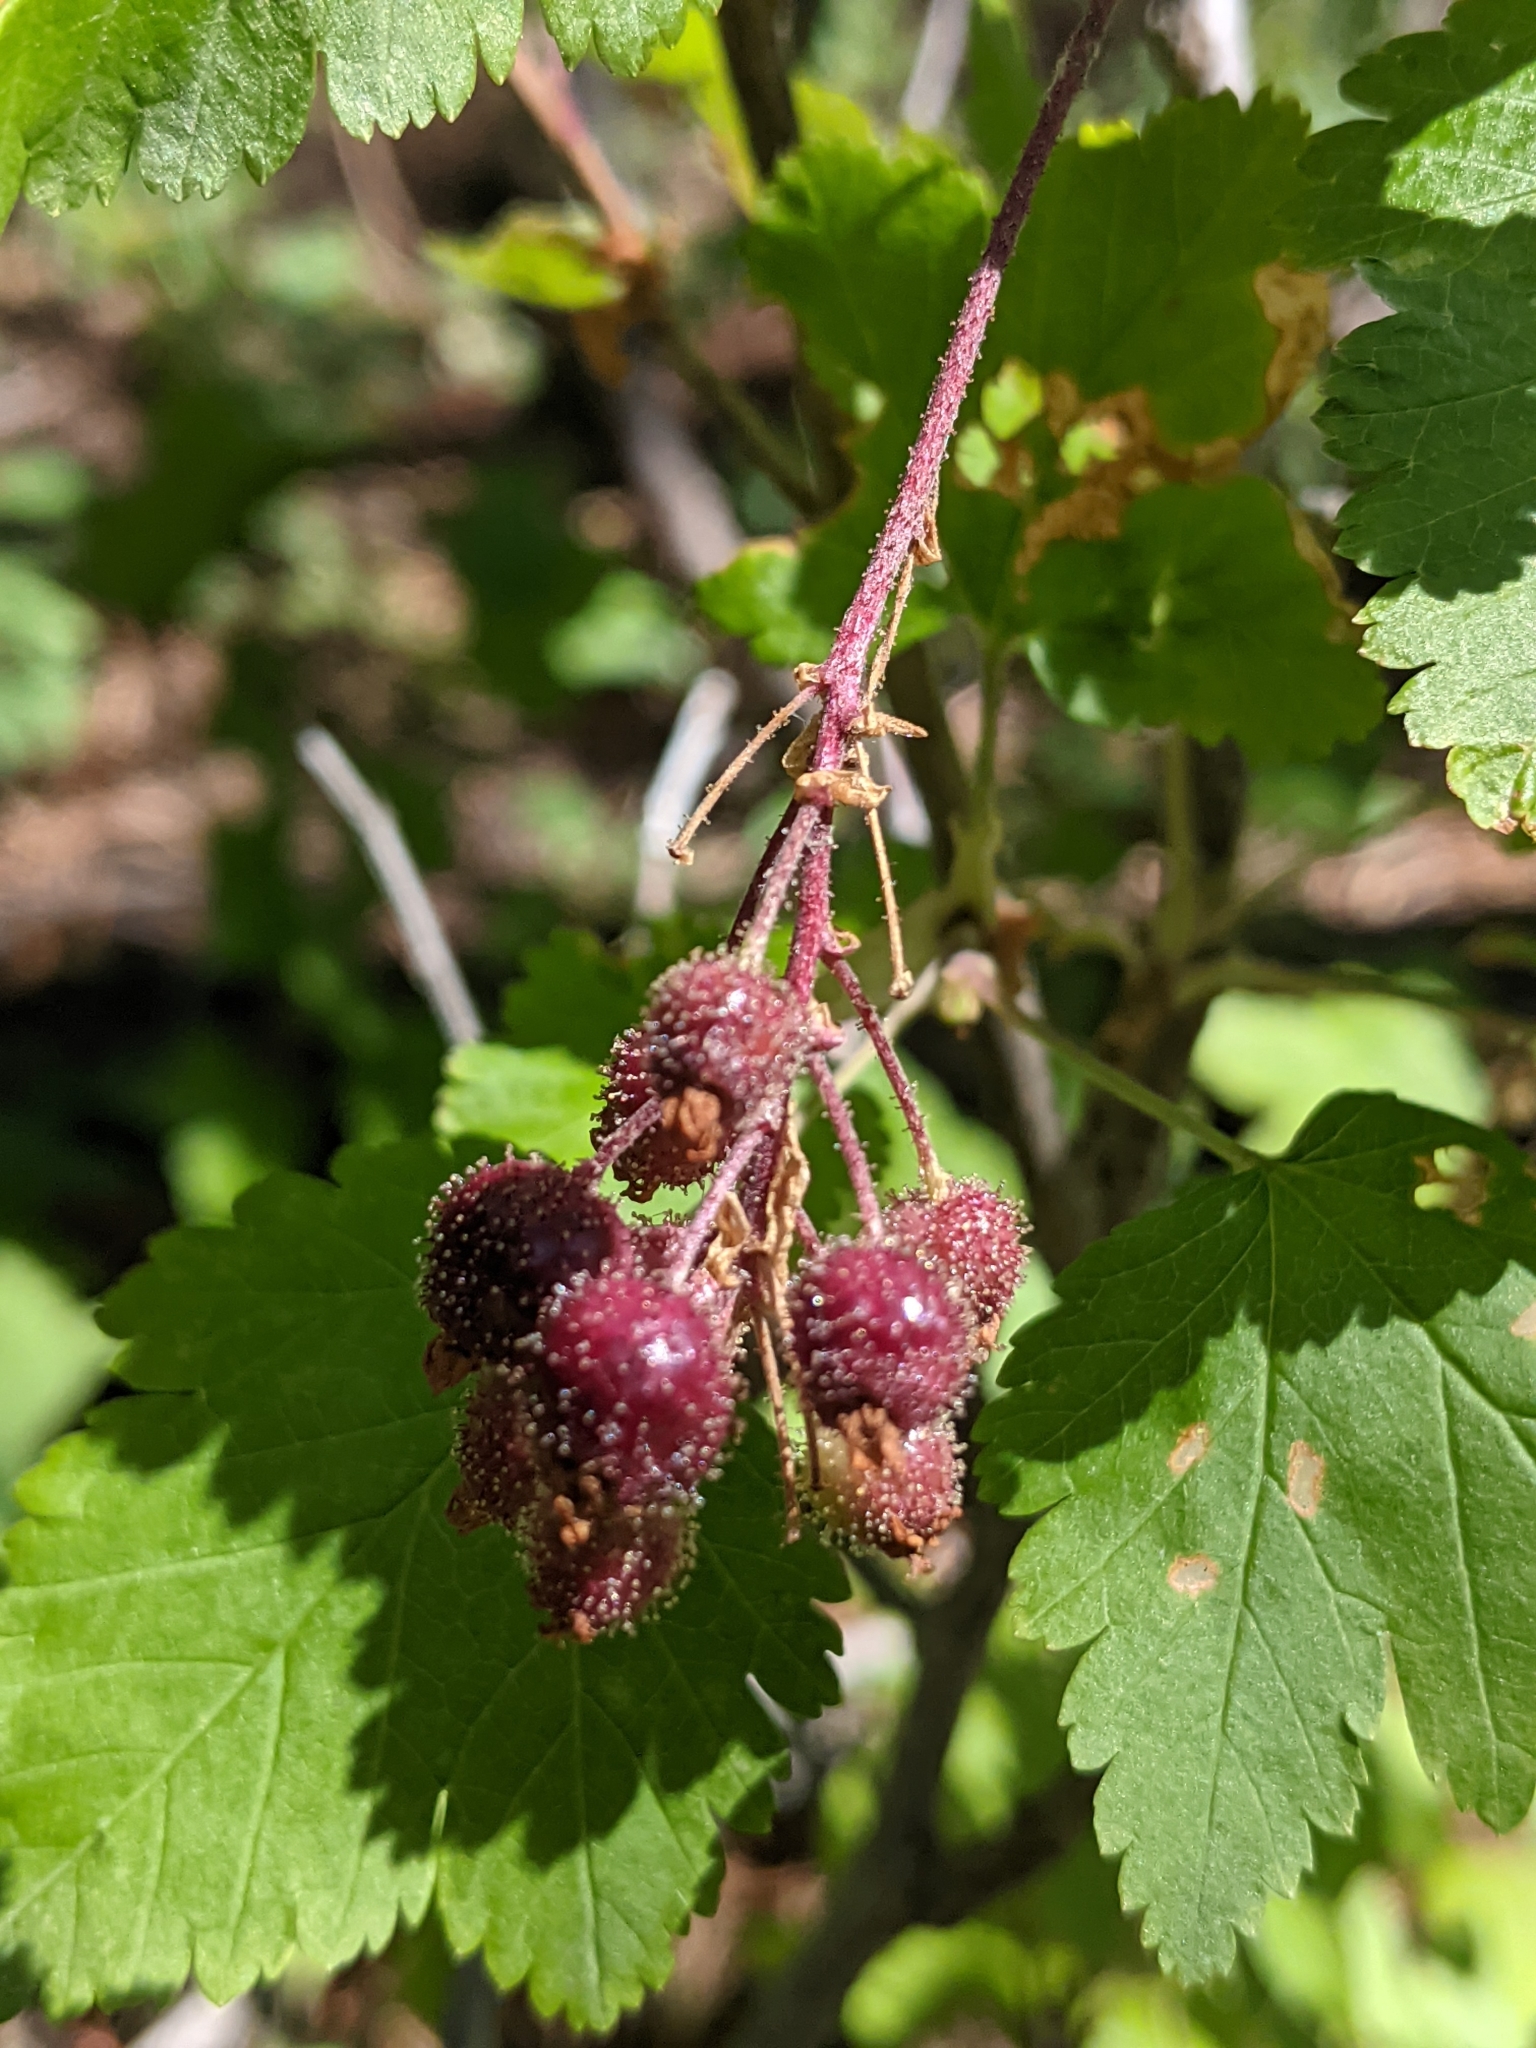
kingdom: Plantae
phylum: Tracheophyta
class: Magnoliopsida
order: Saxifragales
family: Grossulariaceae
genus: Ribes
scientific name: Ribes wolfii
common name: Rothrock currant
